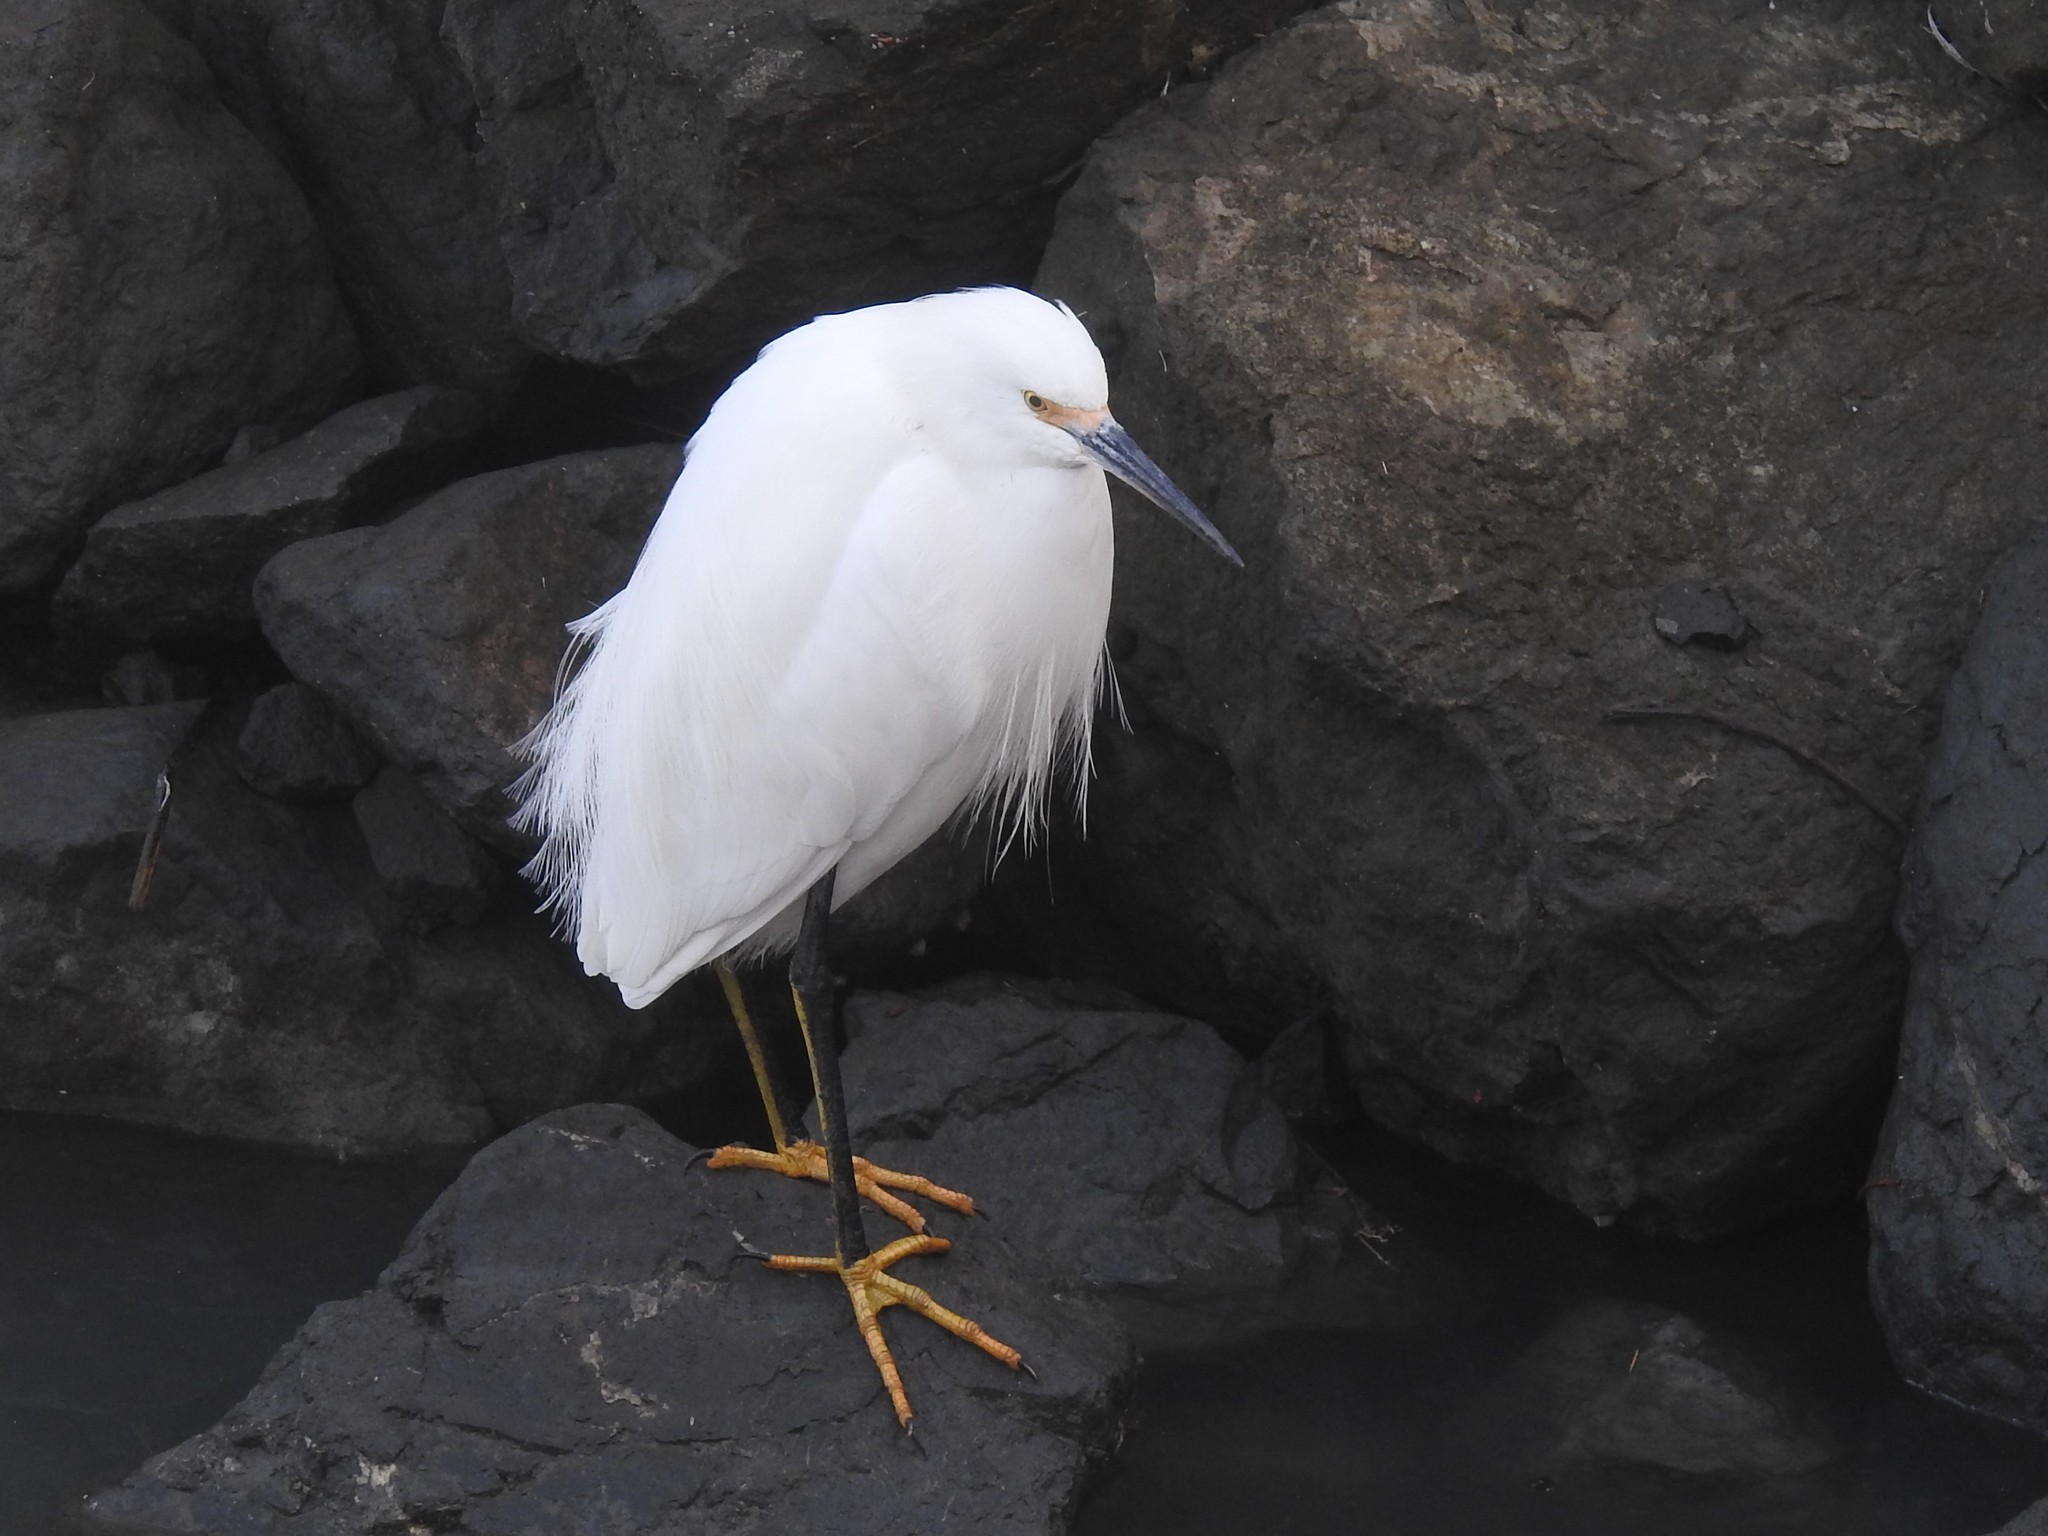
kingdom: Animalia
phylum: Chordata
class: Aves
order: Pelecaniformes
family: Ardeidae
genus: Egretta
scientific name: Egretta thula
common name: Snowy egret
